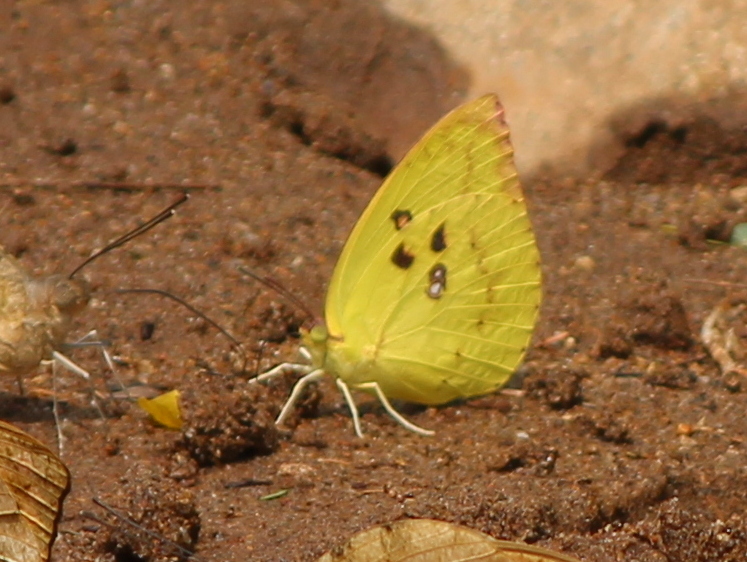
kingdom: Animalia
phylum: Arthropoda
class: Insecta
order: Lepidoptera
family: Pieridae
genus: Catopsilia
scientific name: Catopsilia pomona
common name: Common emigrant
